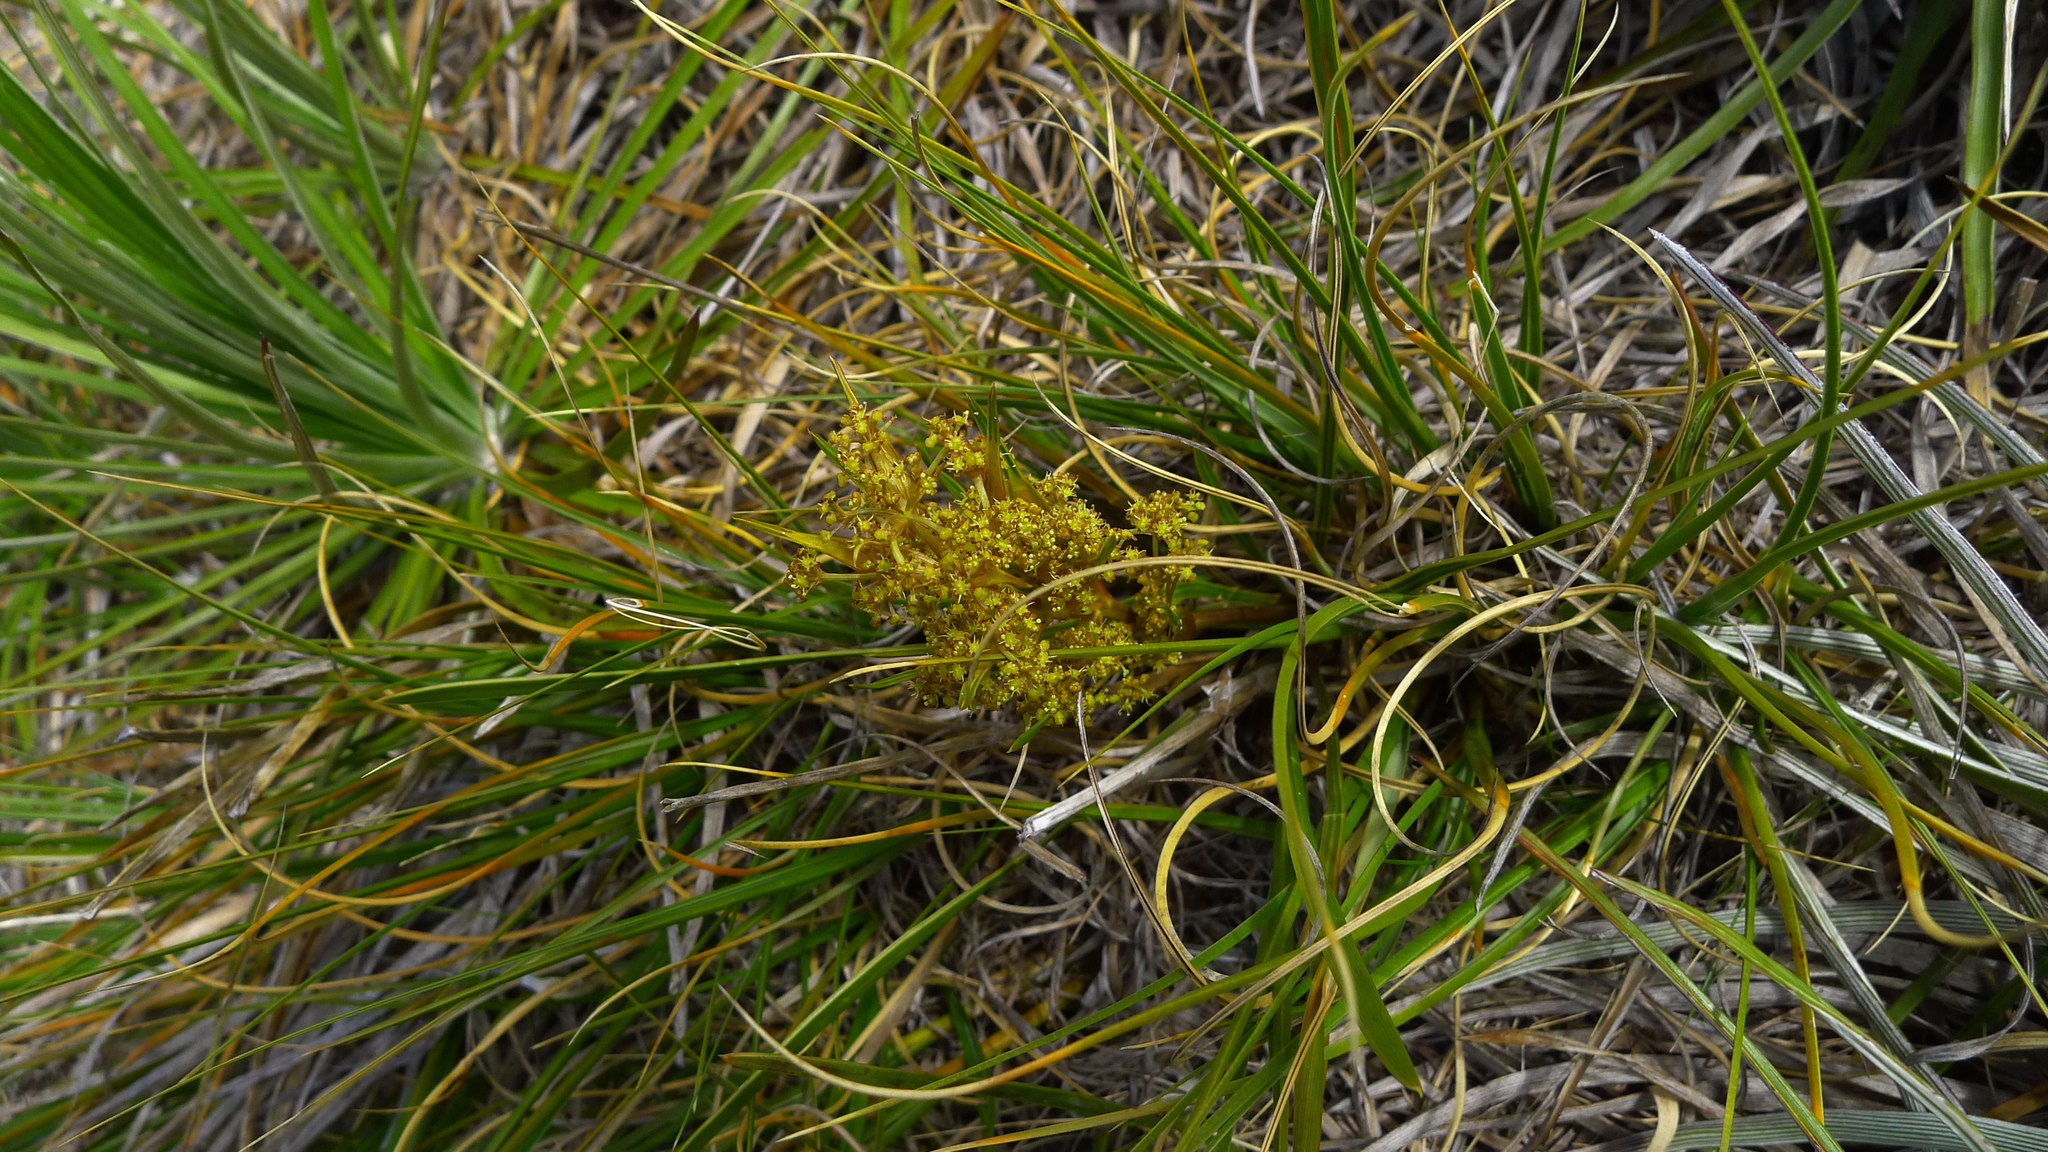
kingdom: Plantae
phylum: Tracheophyta
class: Magnoliopsida
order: Apiales
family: Apiaceae
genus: Aciphylla
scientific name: Aciphylla lyallii
